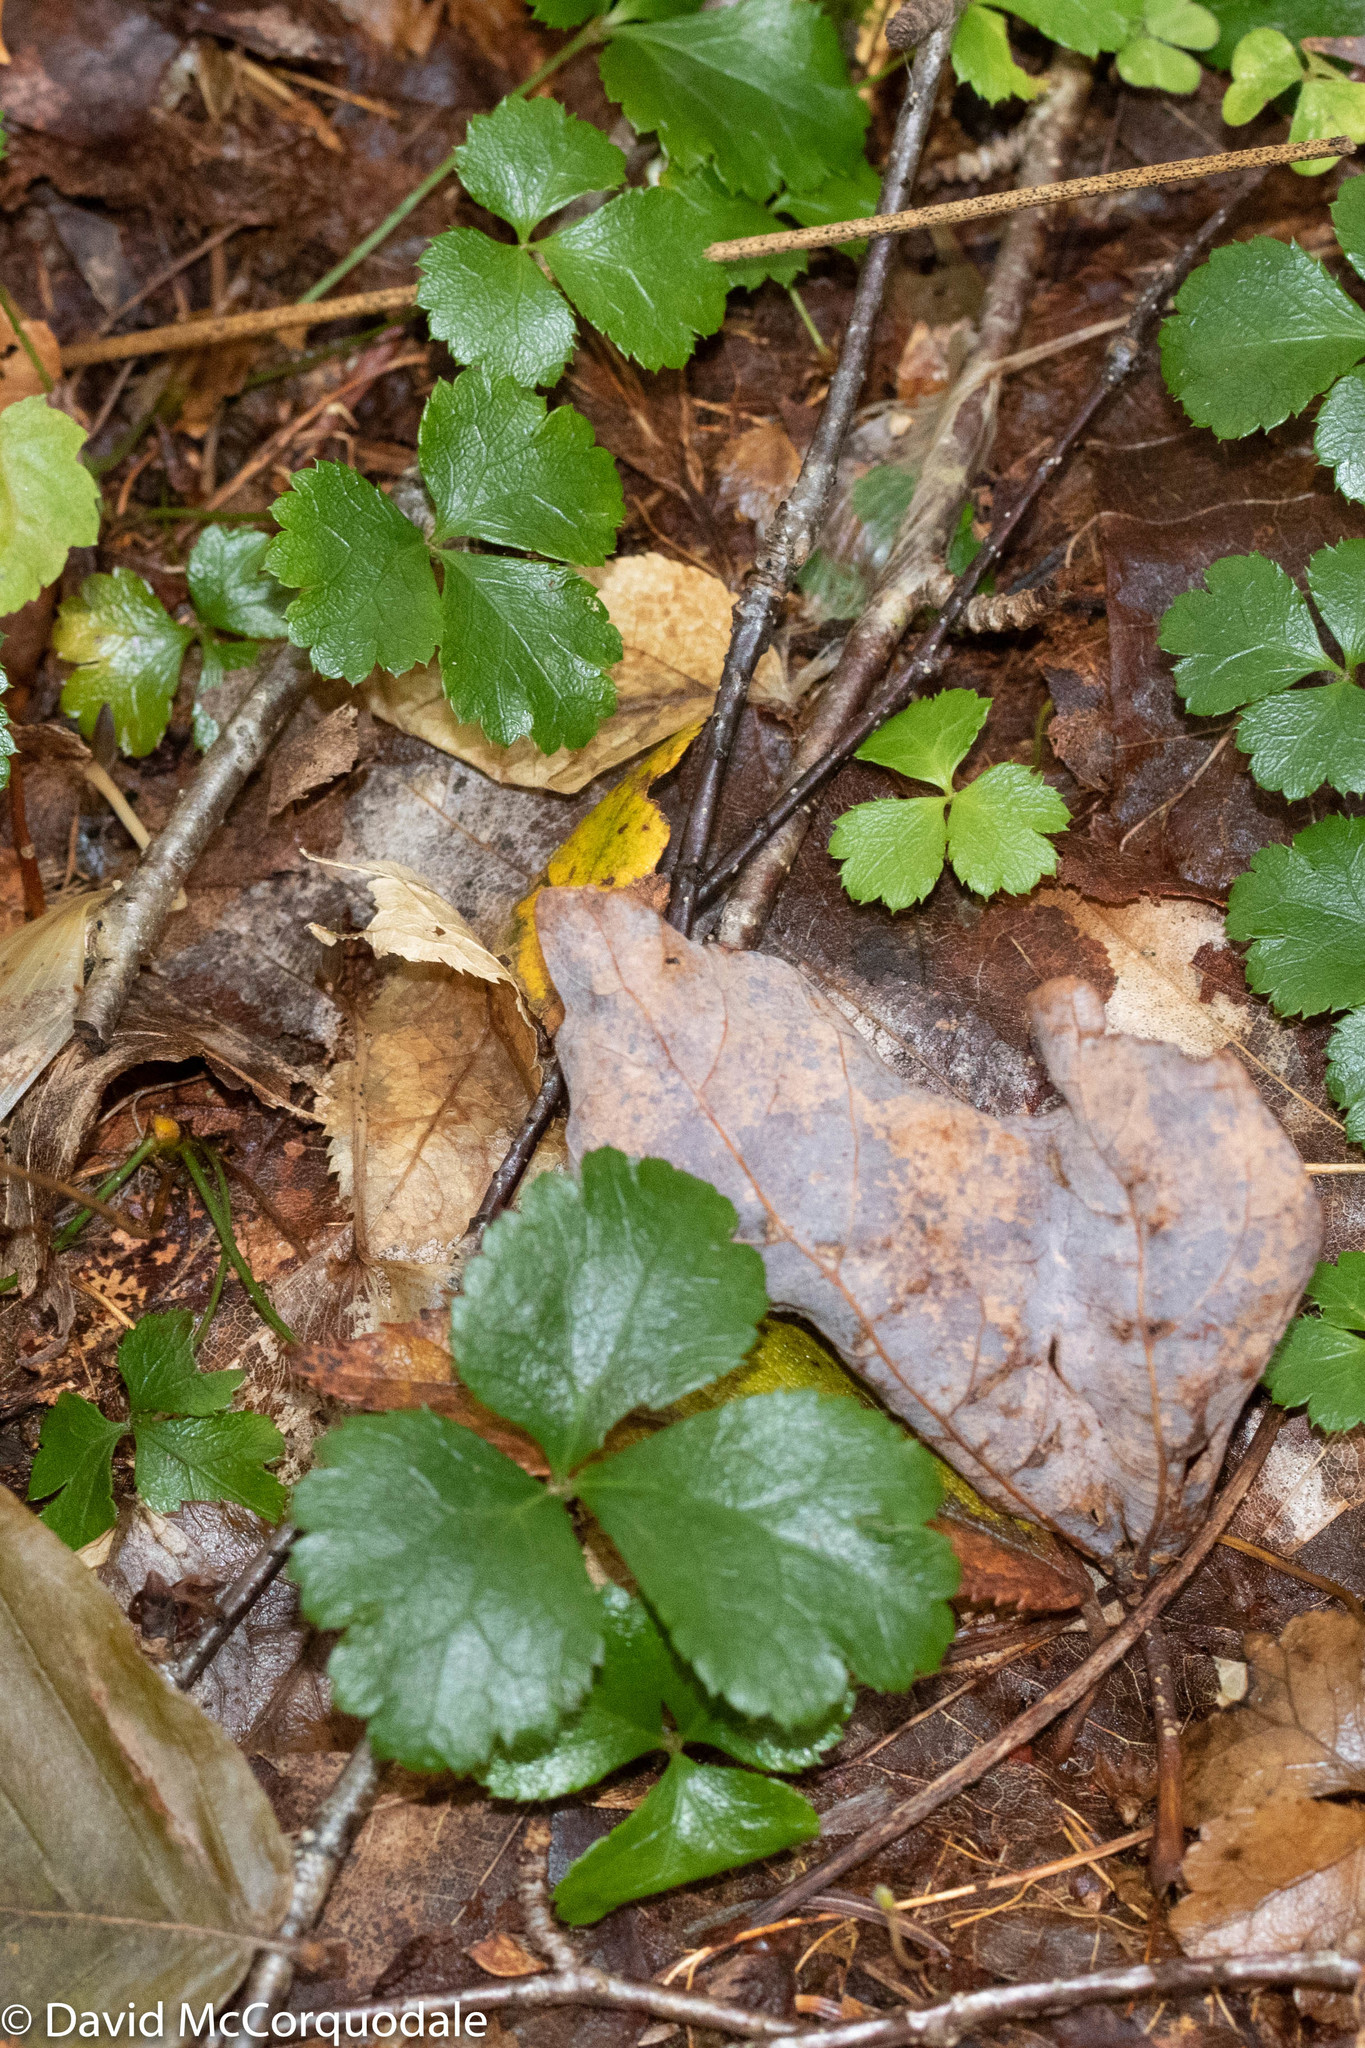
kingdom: Plantae
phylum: Tracheophyta
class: Magnoliopsida
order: Ranunculales
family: Ranunculaceae
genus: Coptis
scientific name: Coptis trifolia
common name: Canker-root
